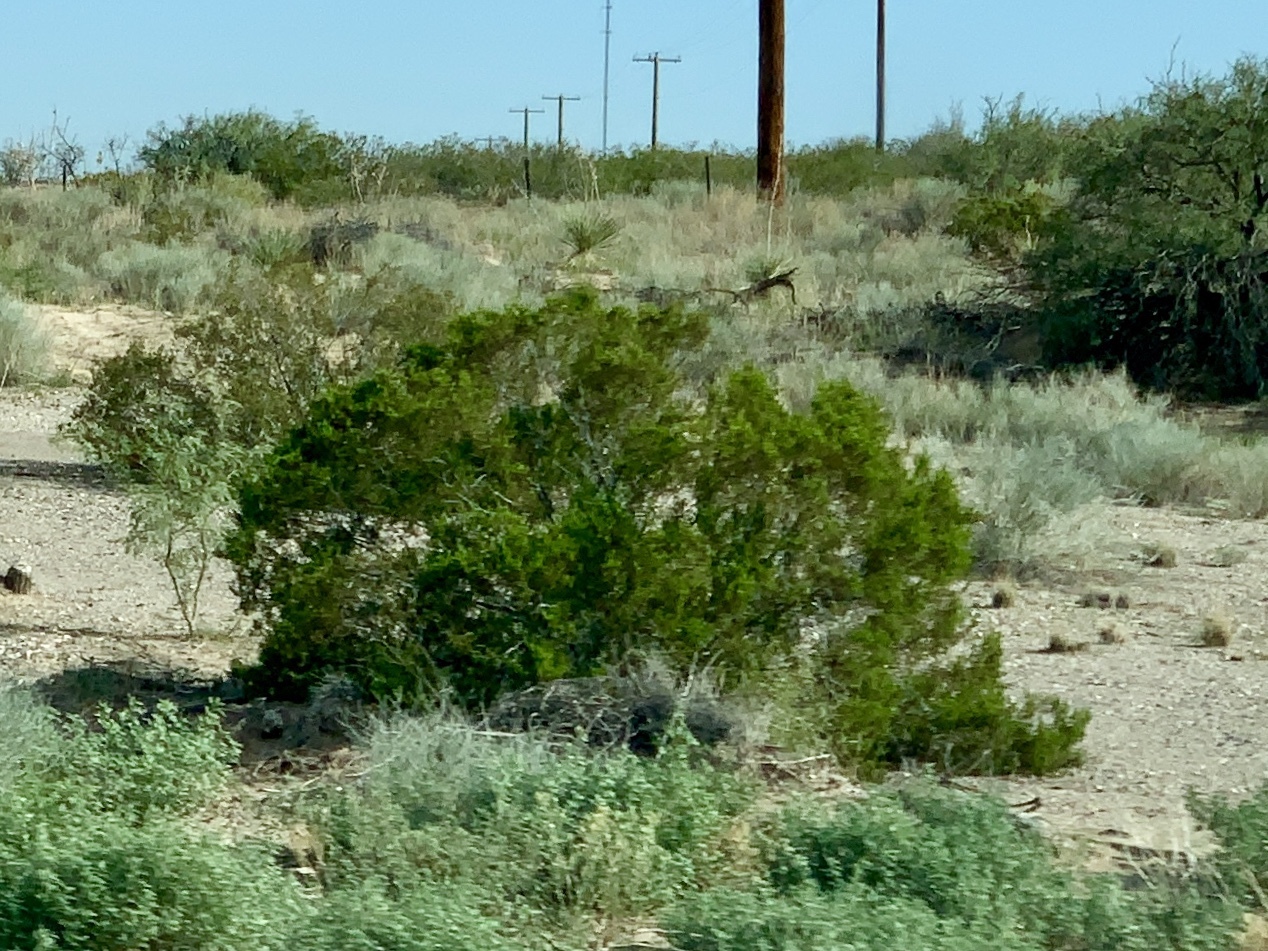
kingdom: Plantae
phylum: Tracheophyta
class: Magnoliopsida
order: Zygophyllales
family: Zygophyllaceae
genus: Larrea
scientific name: Larrea tridentata
